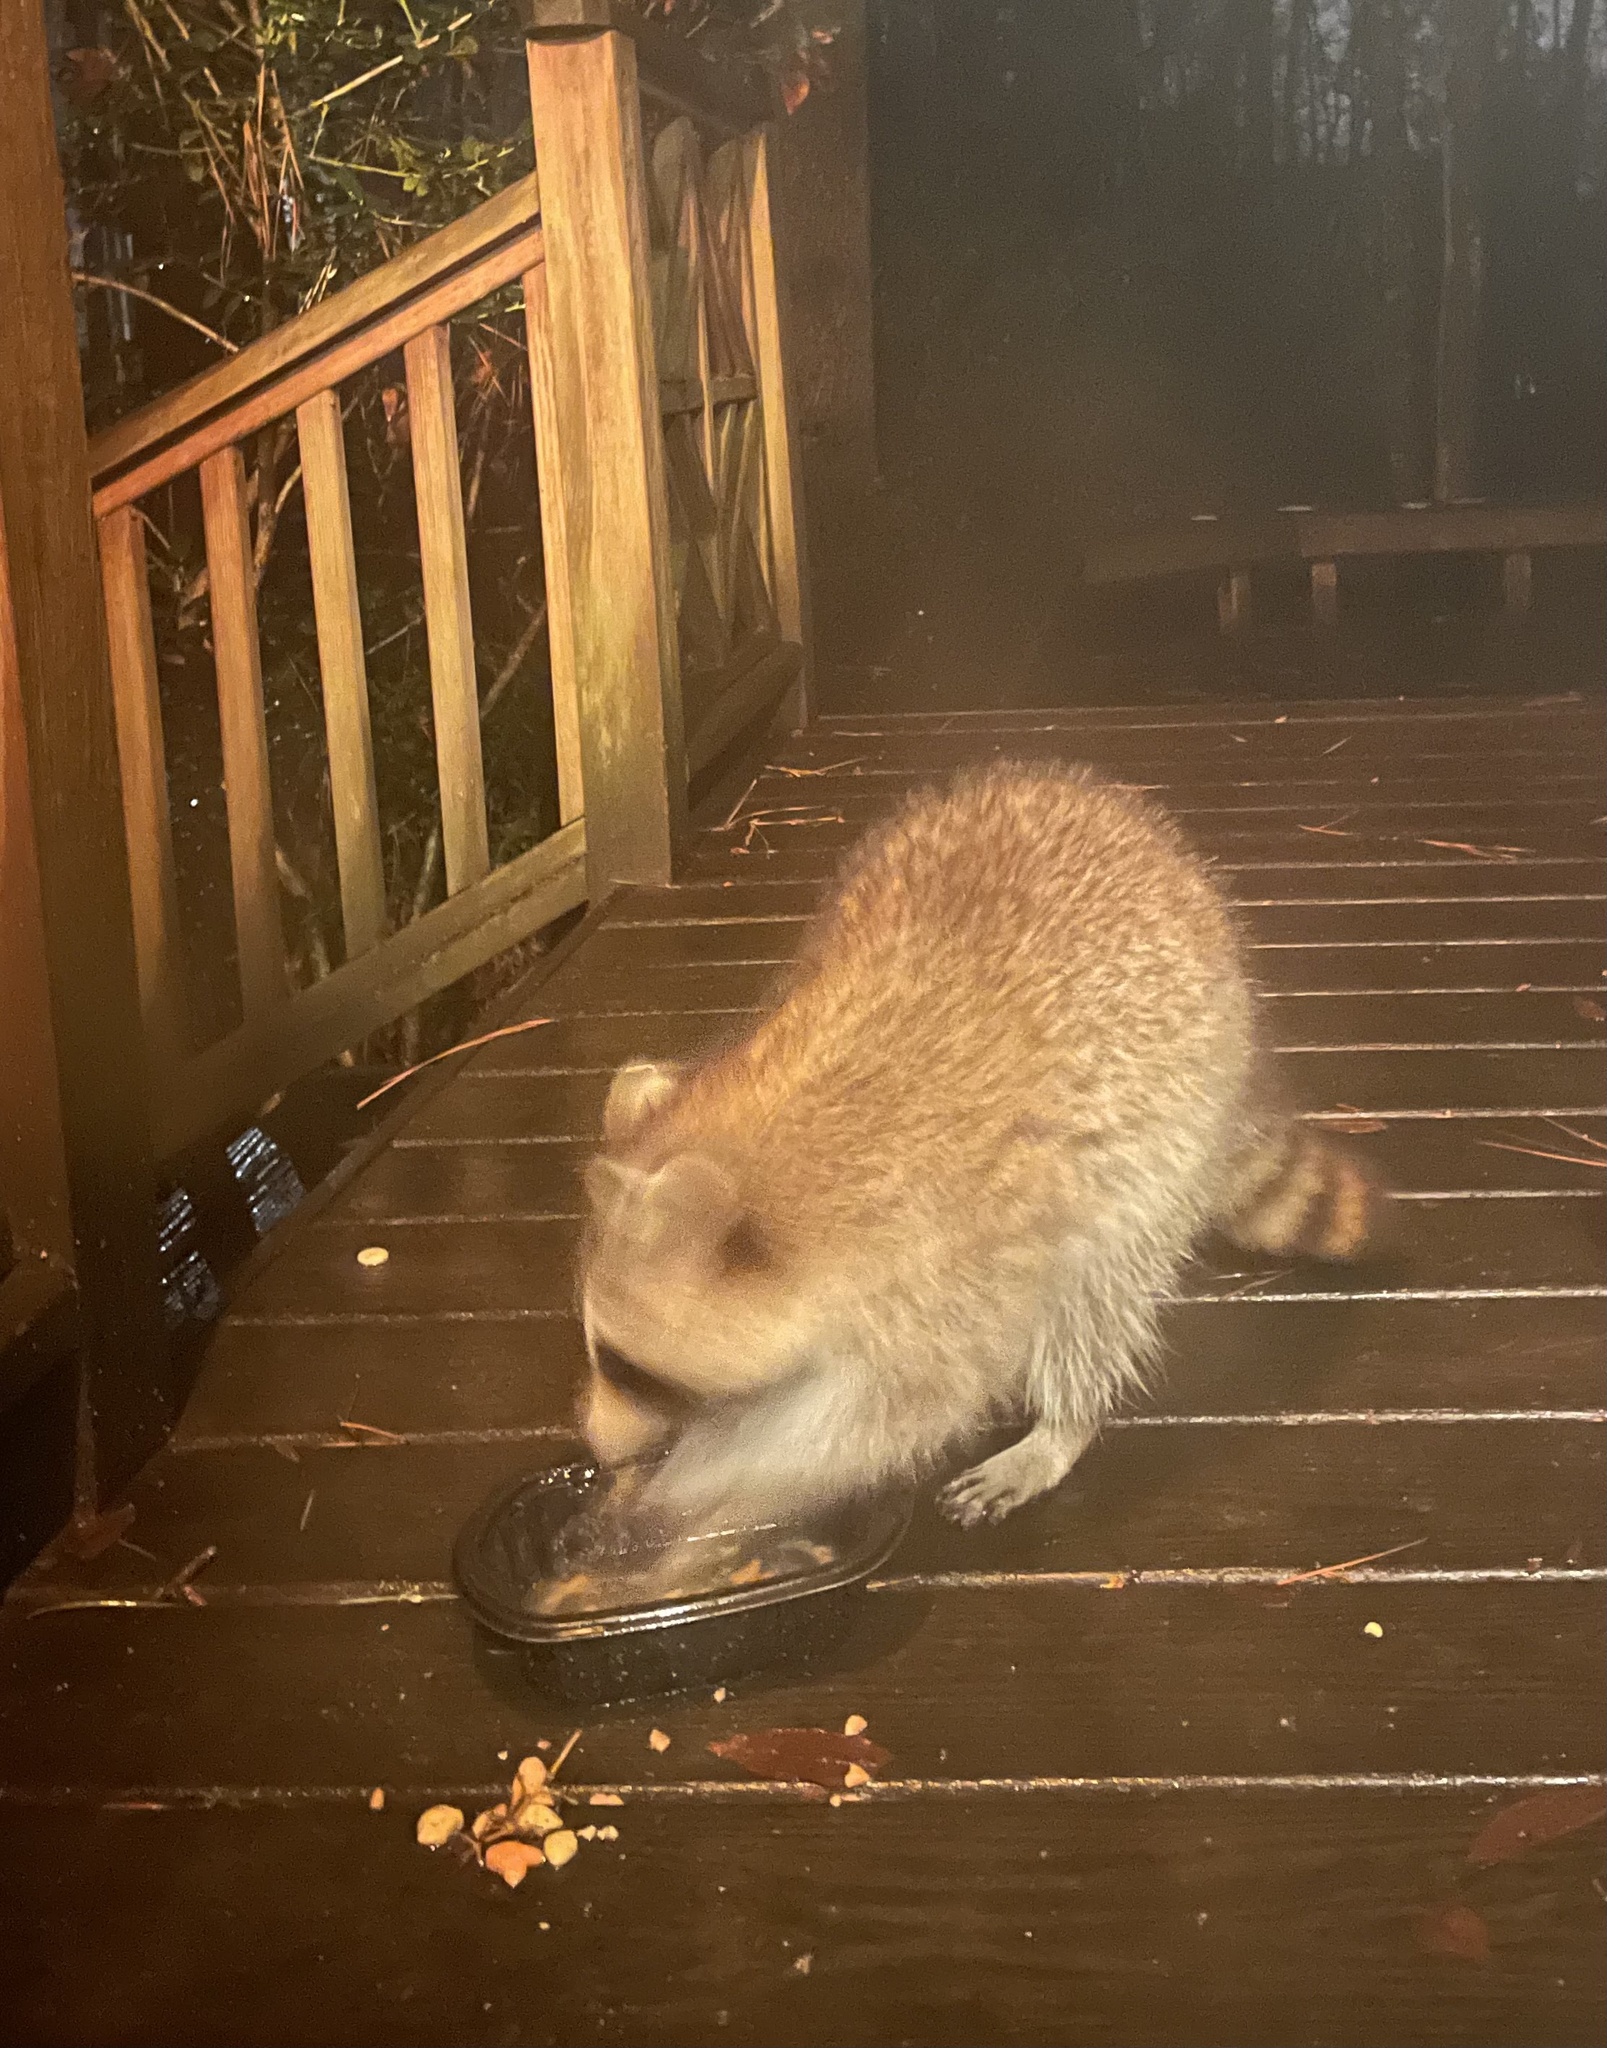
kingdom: Animalia
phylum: Chordata
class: Mammalia
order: Carnivora
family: Procyonidae
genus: Procyon
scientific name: Procyon lotor
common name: Raccoon
